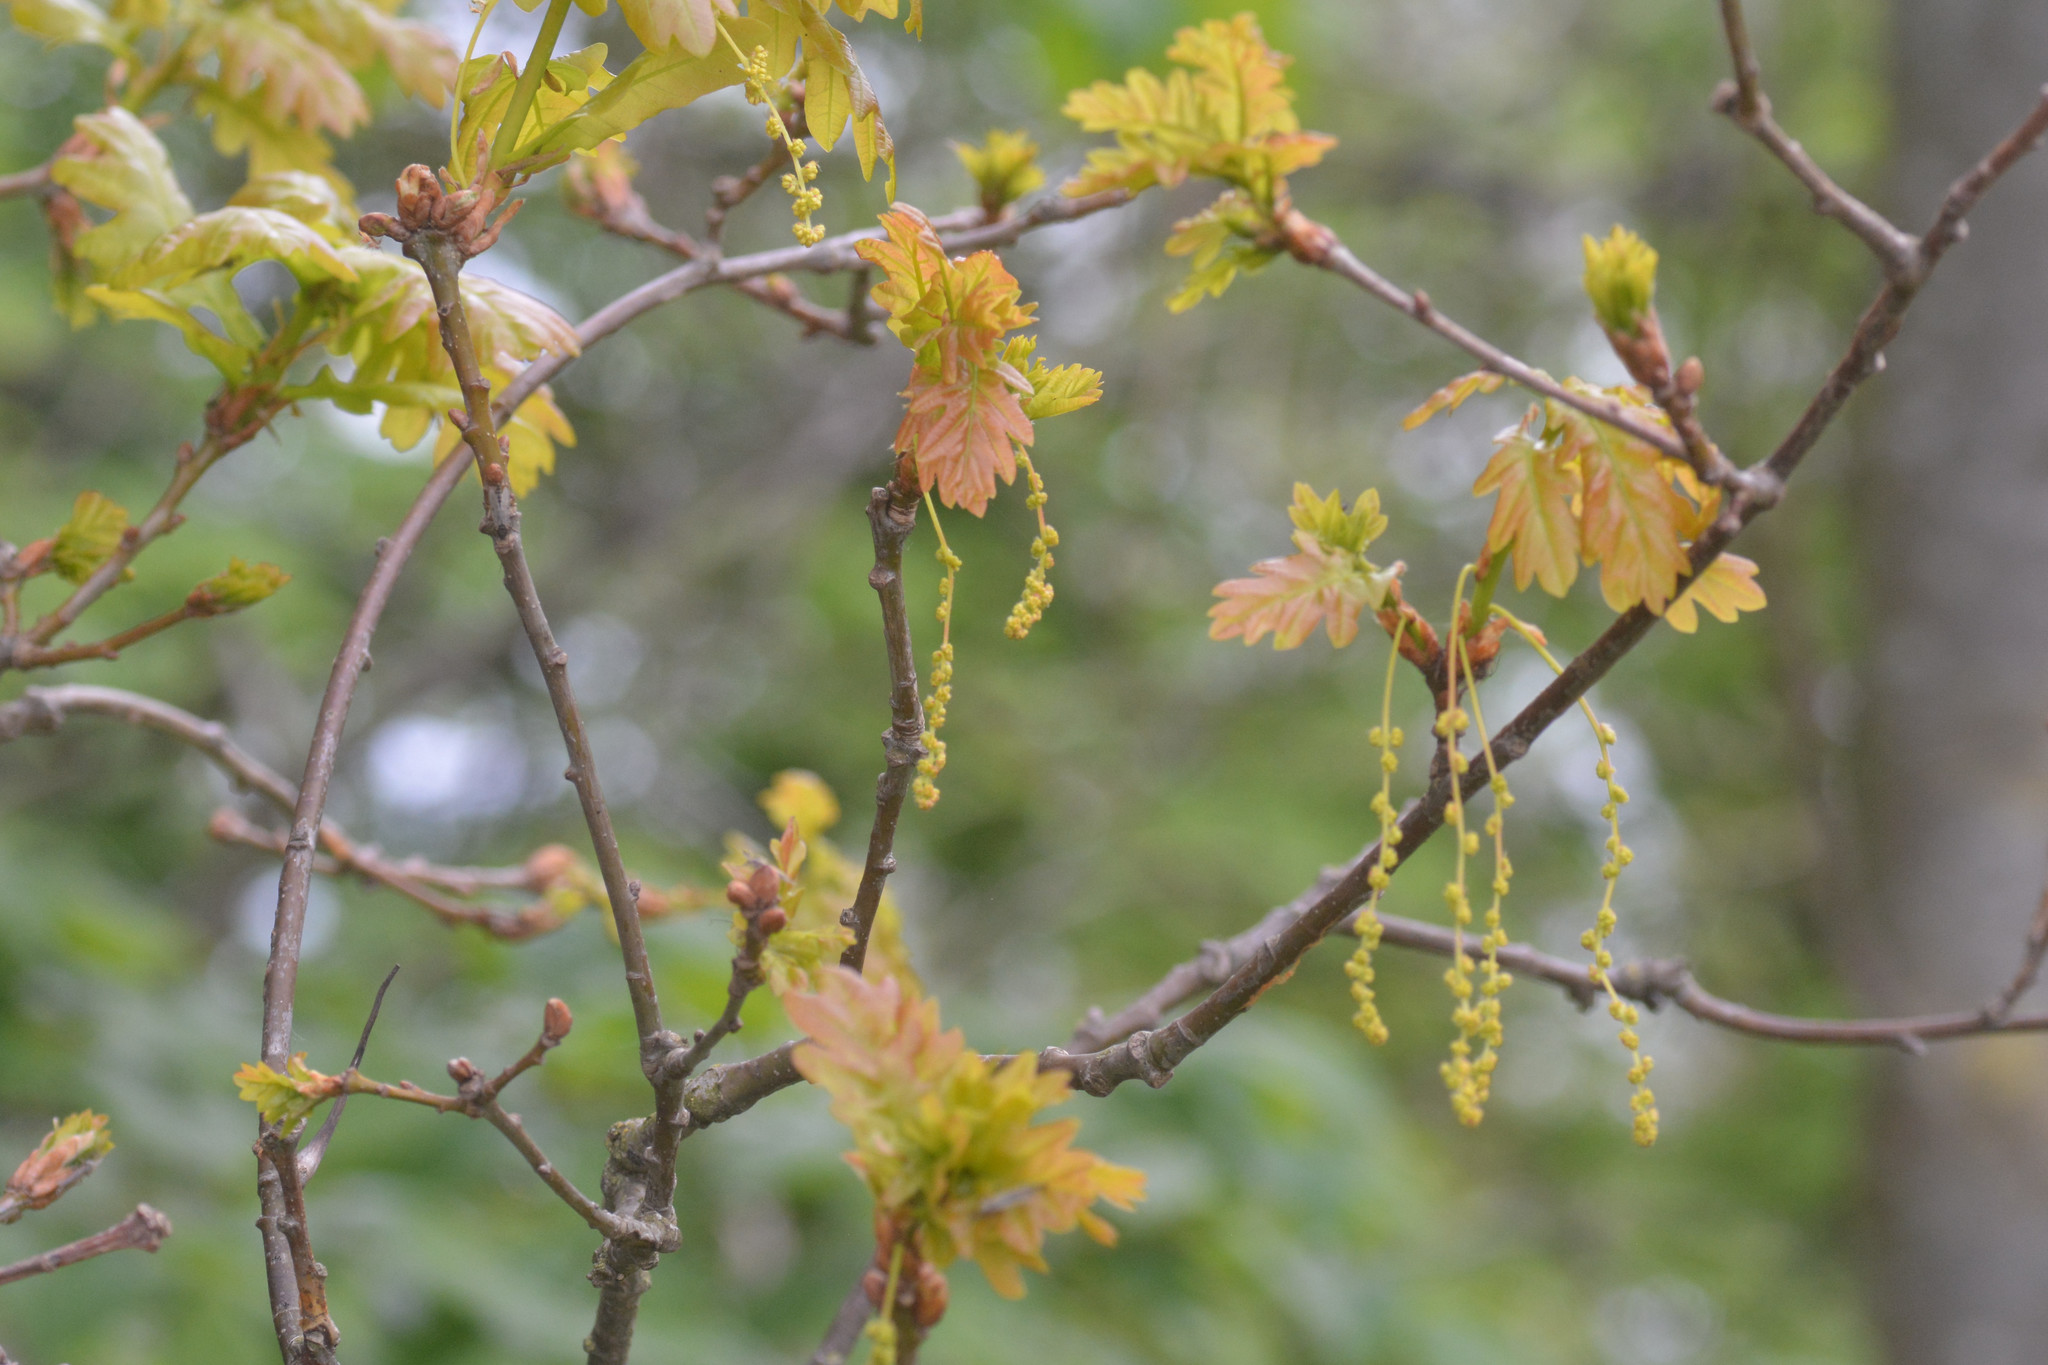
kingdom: Plantae
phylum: Tracheophyta
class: Magnoliopsida
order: Fagales
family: Fagaceae
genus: Quercus
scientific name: Quercus robur
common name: Pedunculate oak
